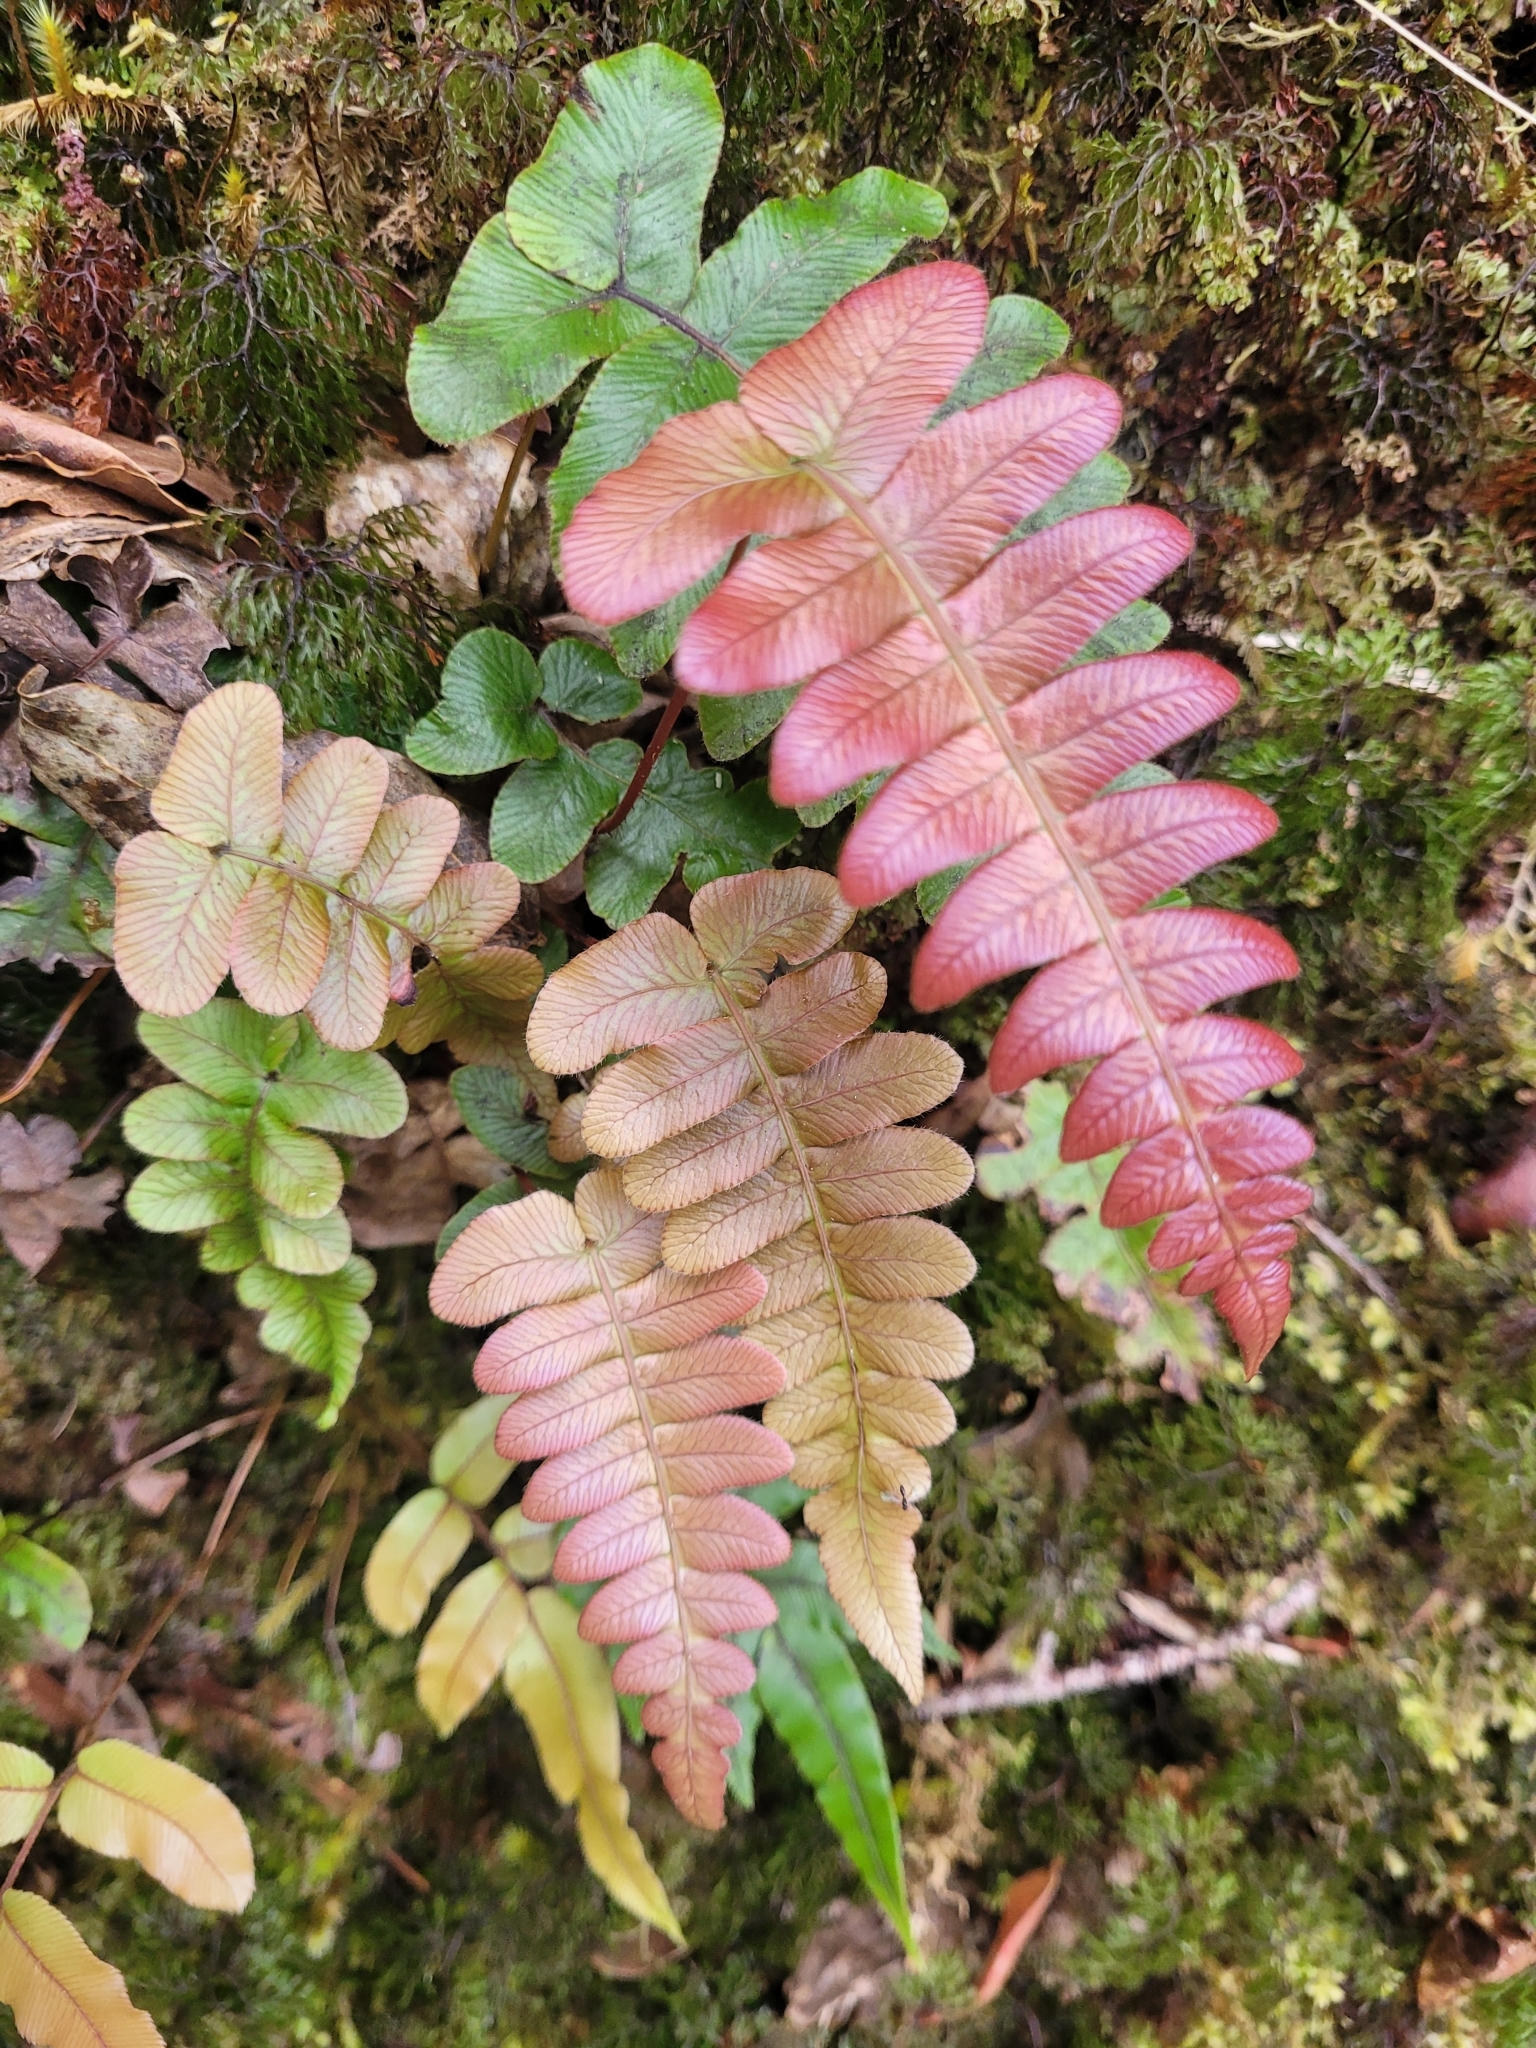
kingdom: Plantae
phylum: Tracheophyta
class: Polypodiopsida
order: Polypodiales
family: Blechnaceae
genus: Cranfillia
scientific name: Cranfillia deltoides
